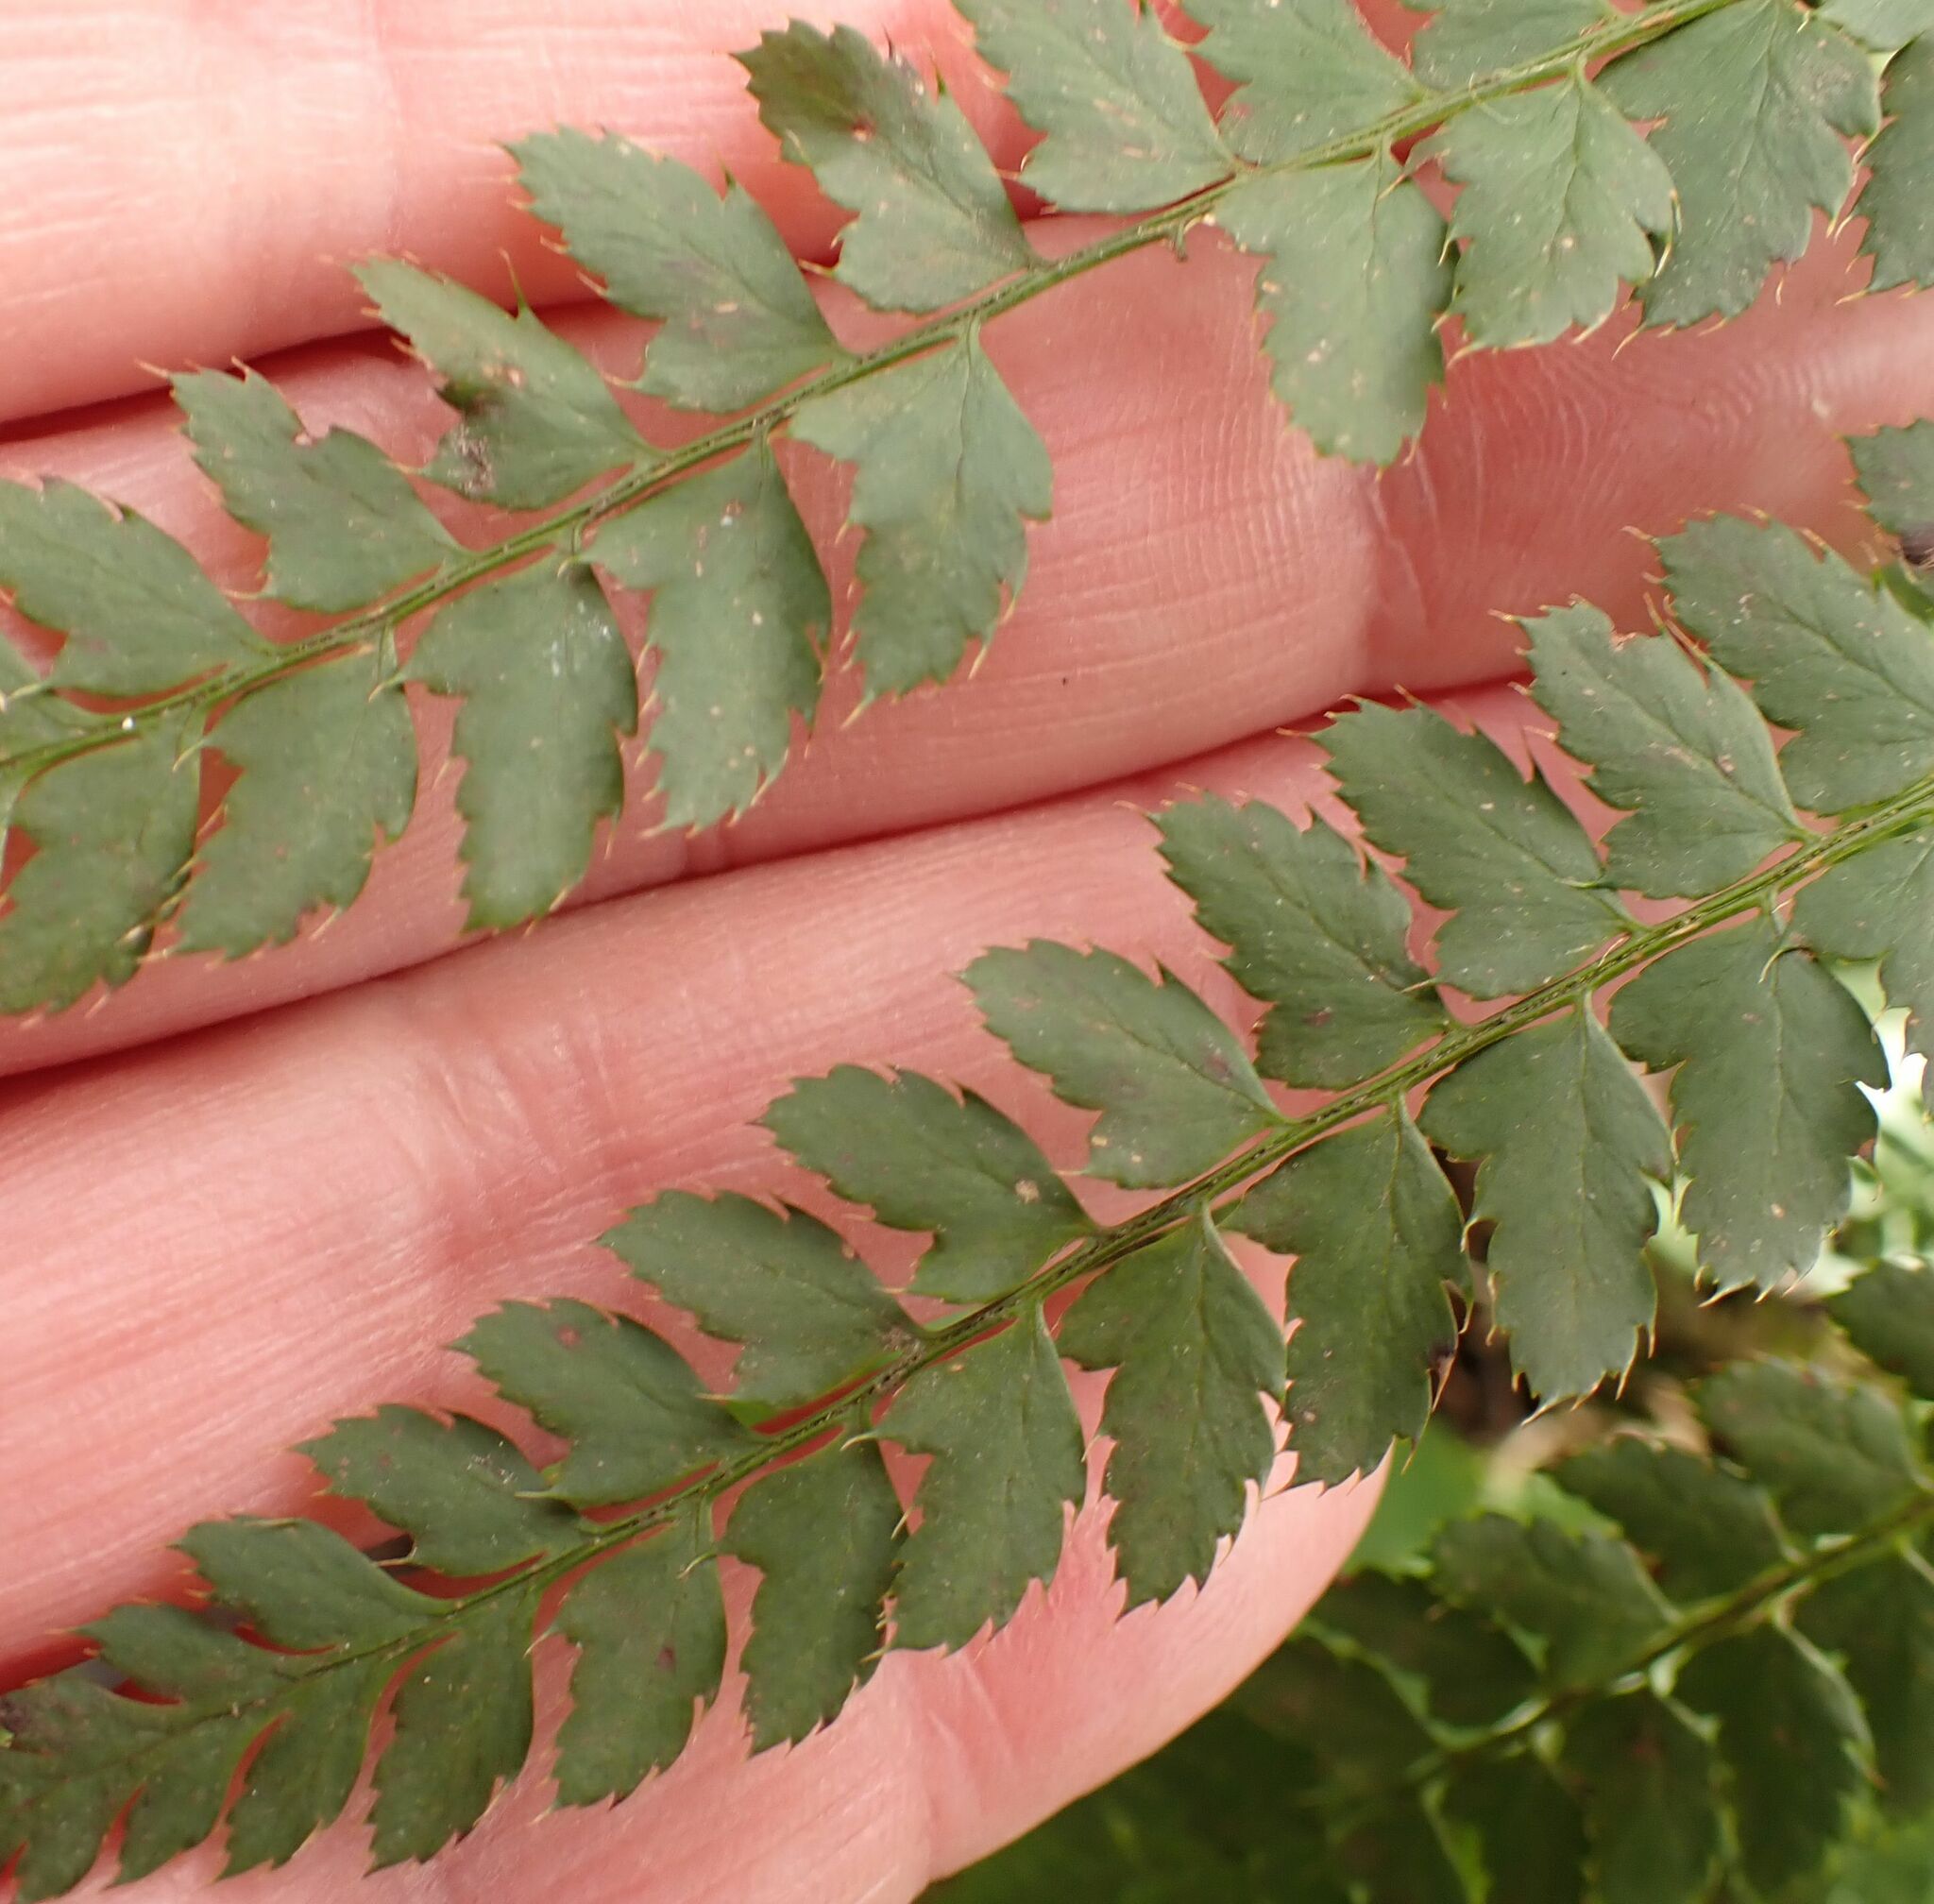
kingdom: Plantae
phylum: Tracheophyta
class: Polypodiopsida
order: Polypodiales
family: Dryopteridaceae
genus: Polystichum
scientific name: Polystichum setiferum
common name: Soft shield-fern
